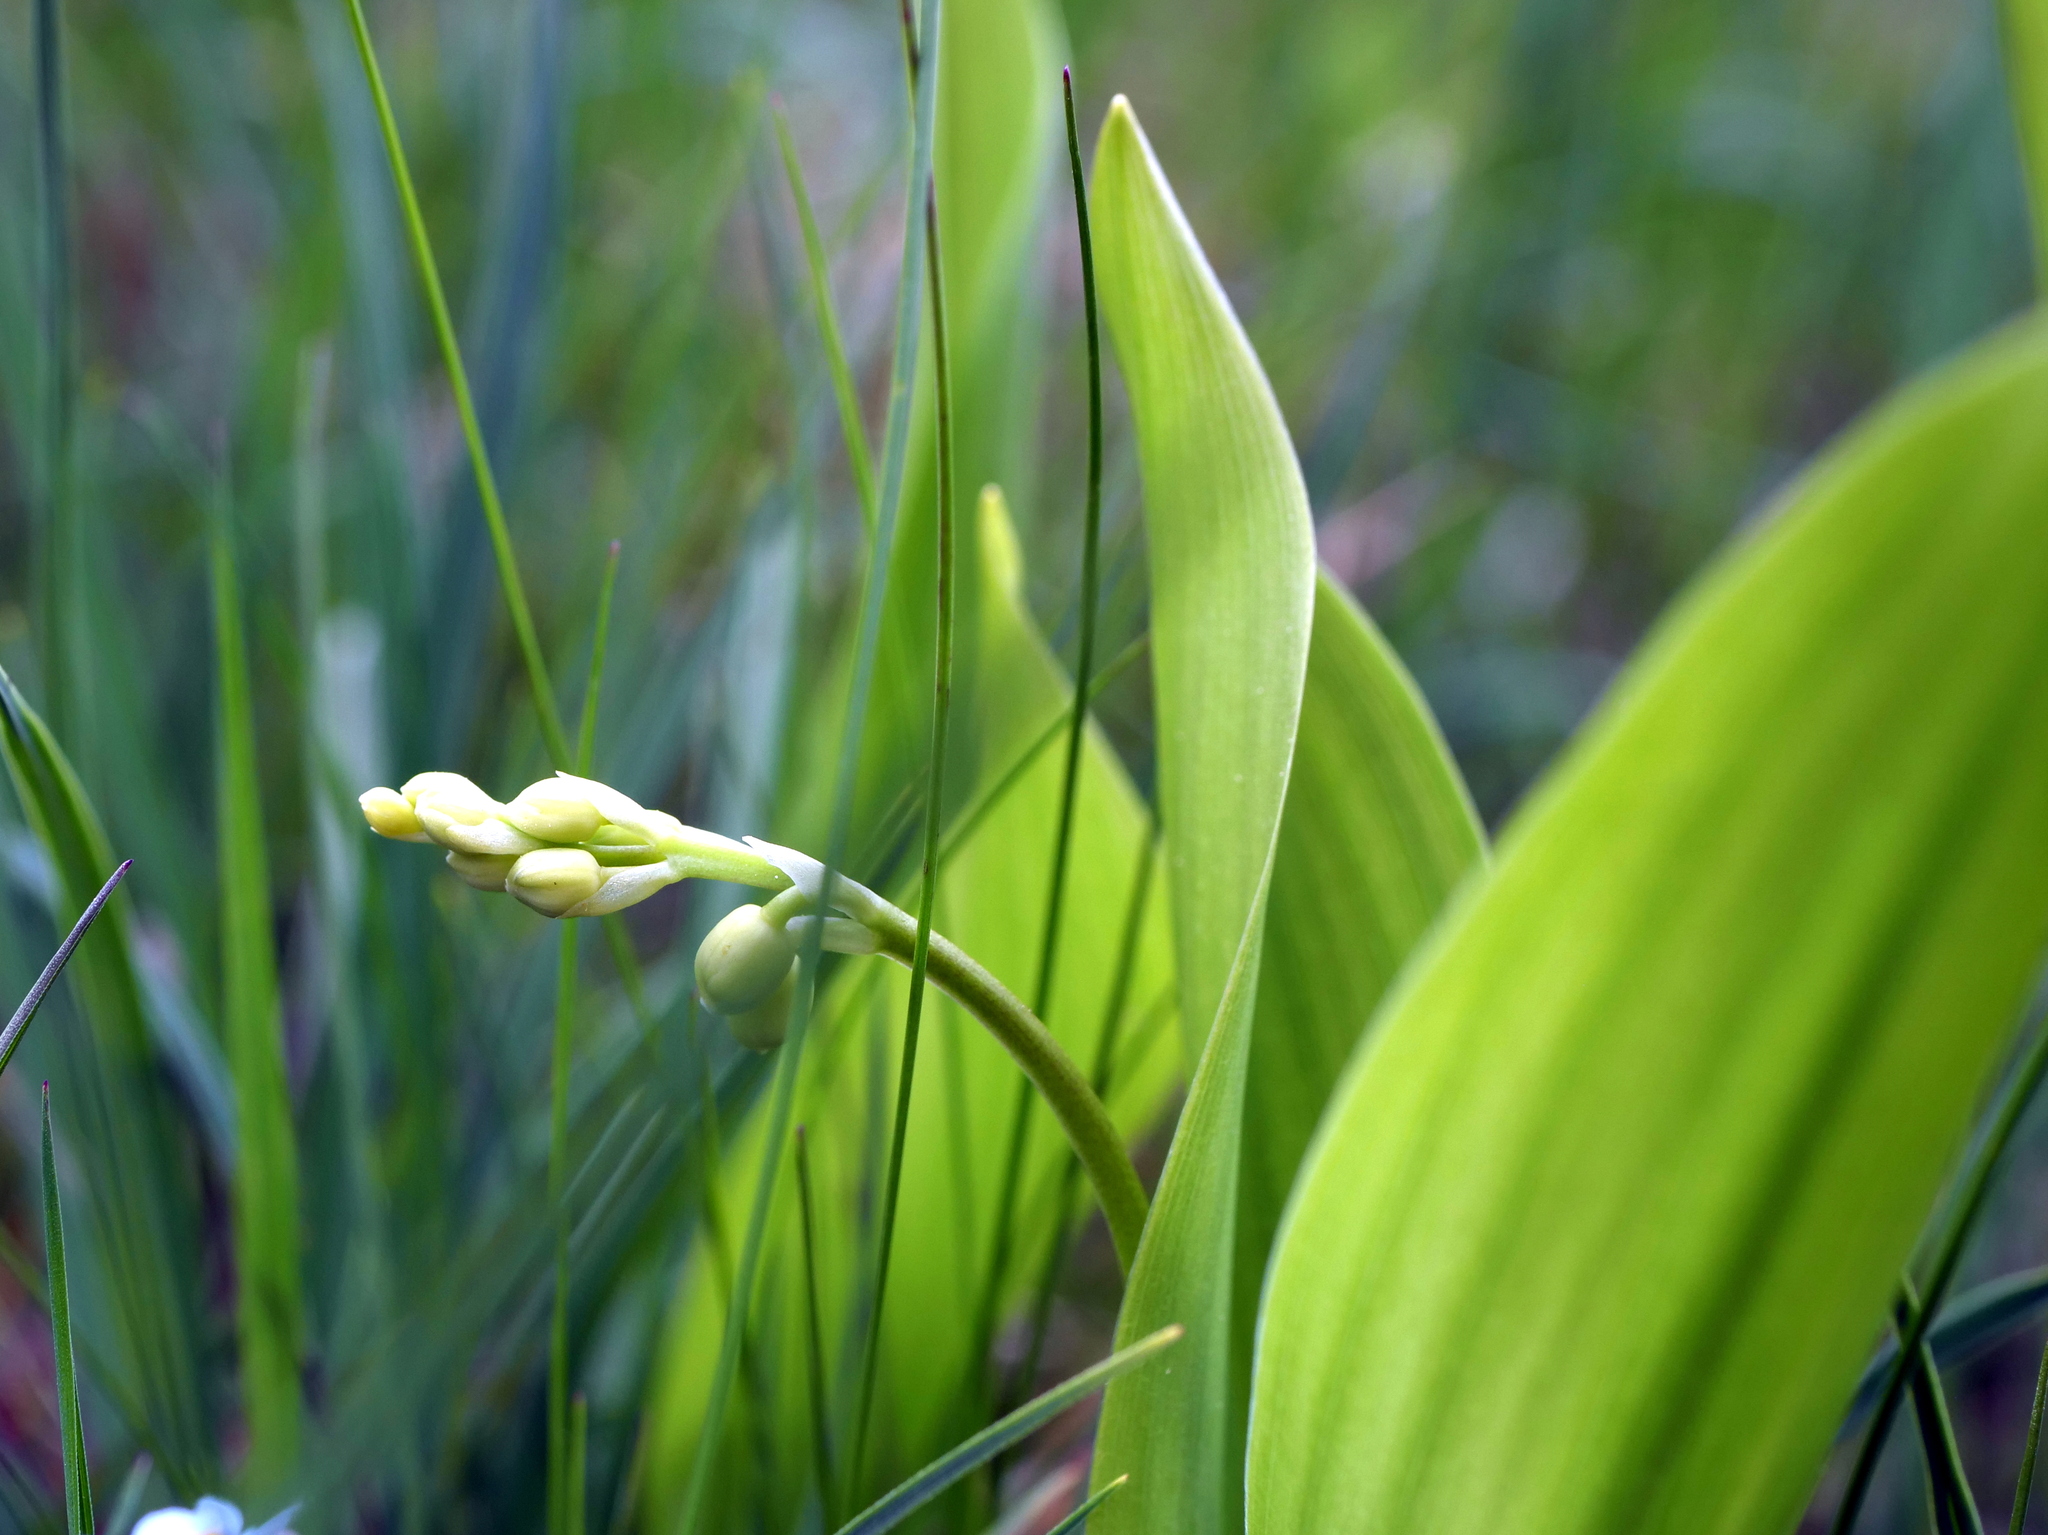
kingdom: Plantae
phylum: Tracheophyta
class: Liliopsida
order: Asparagales
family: Asparagaceae
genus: Convallaria
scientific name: Convallaria majalis
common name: Lily-of-the-valley
